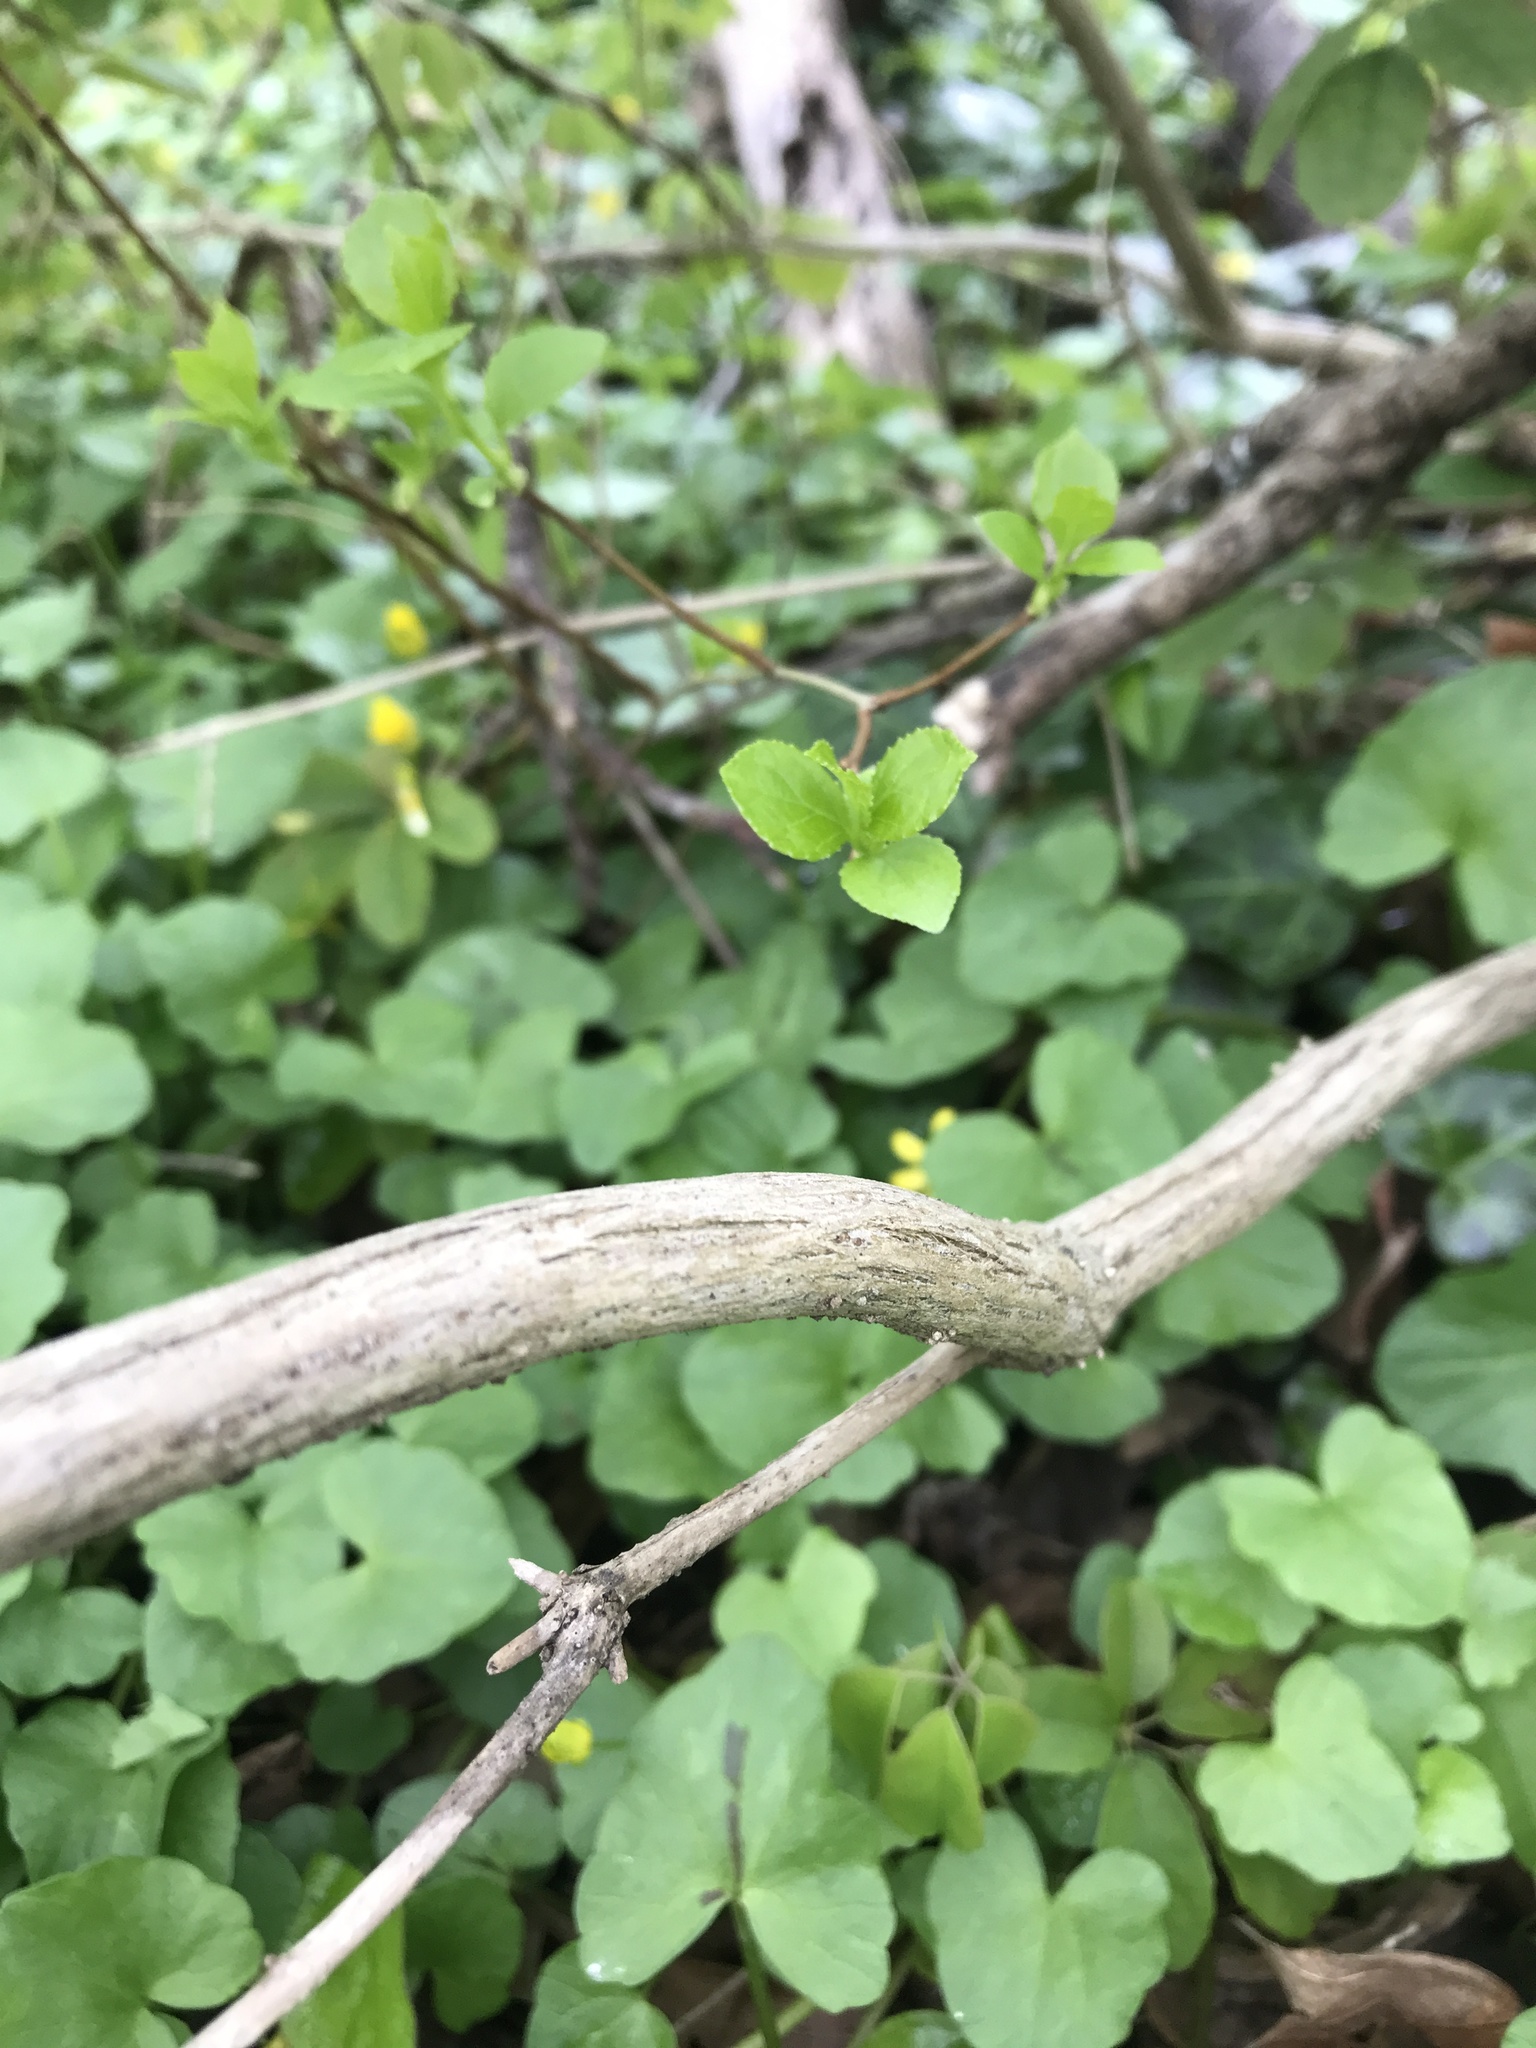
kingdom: Plantae
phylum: Tracheophyta
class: Magnoliopsida
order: Dipsacales
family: Caprifoliaceae
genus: Lonicera
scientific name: Lonicera maackii
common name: Amur honeysuckle
